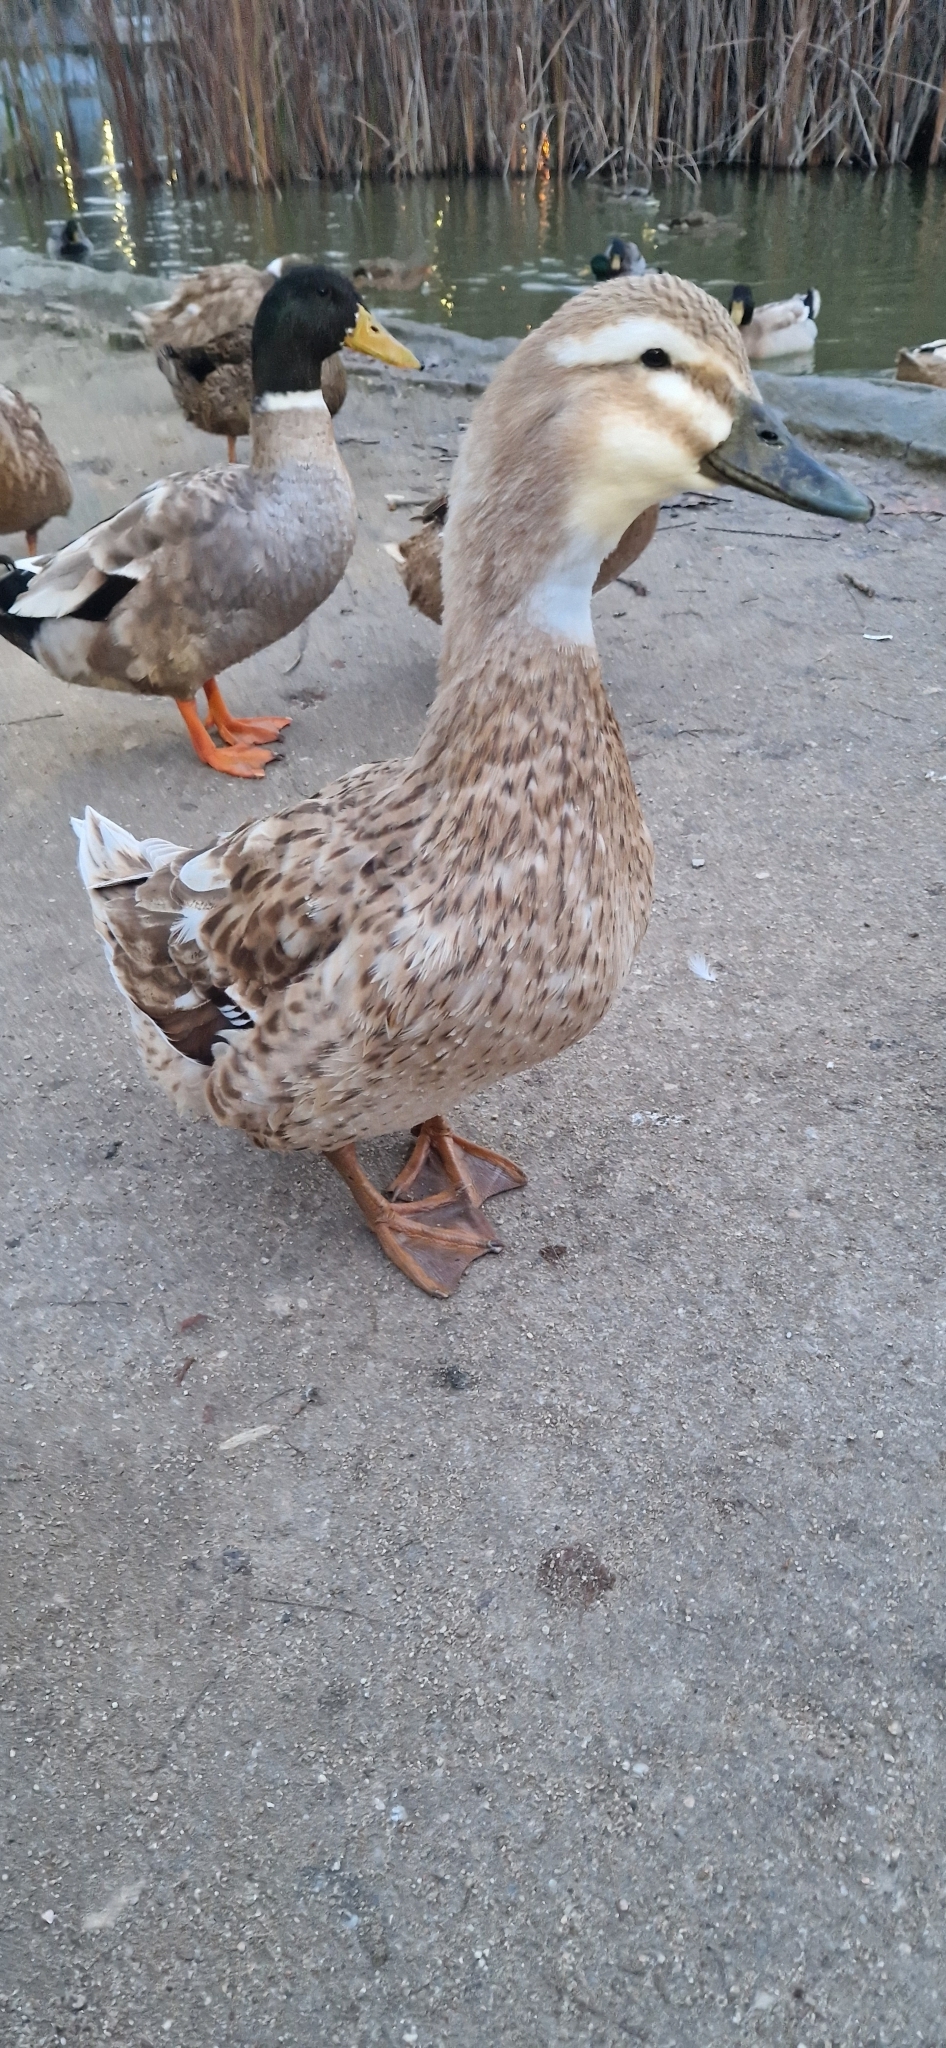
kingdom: Animalia
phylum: Chordata
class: Aves
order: Anseriformes
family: Anatidae
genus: Anas
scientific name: Anas platyrhynchos
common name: Mallard
